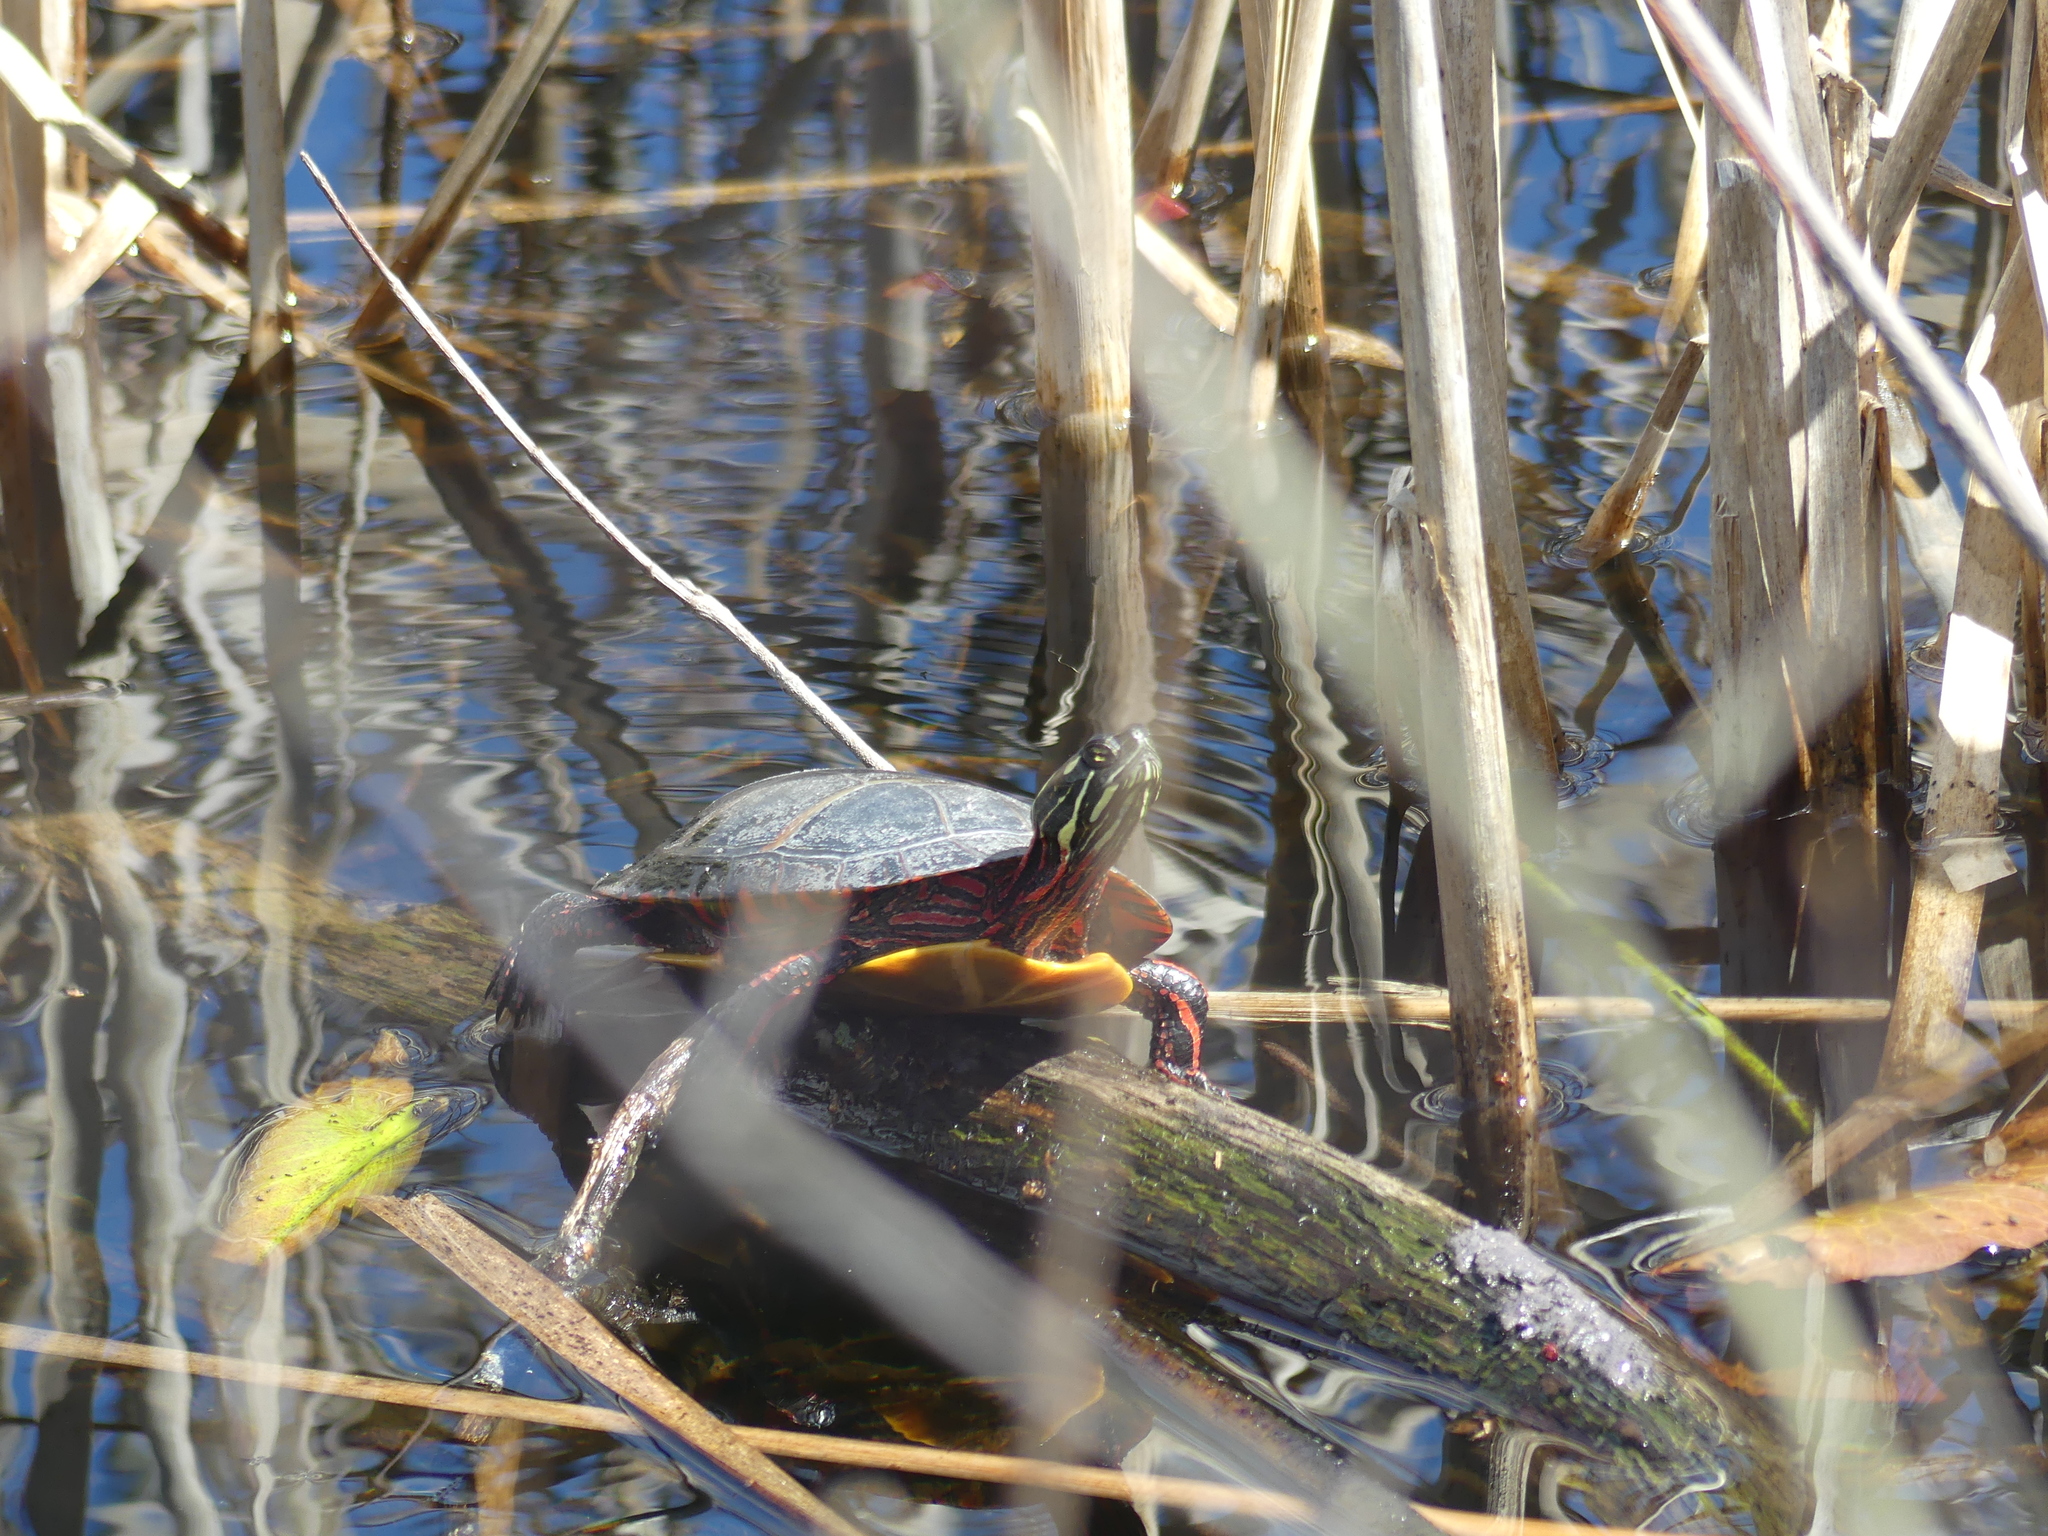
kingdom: Animalia
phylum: Chordata
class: Testudines
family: Emydidae
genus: Chrysemys
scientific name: Chrysemys picta
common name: Painted turtle
